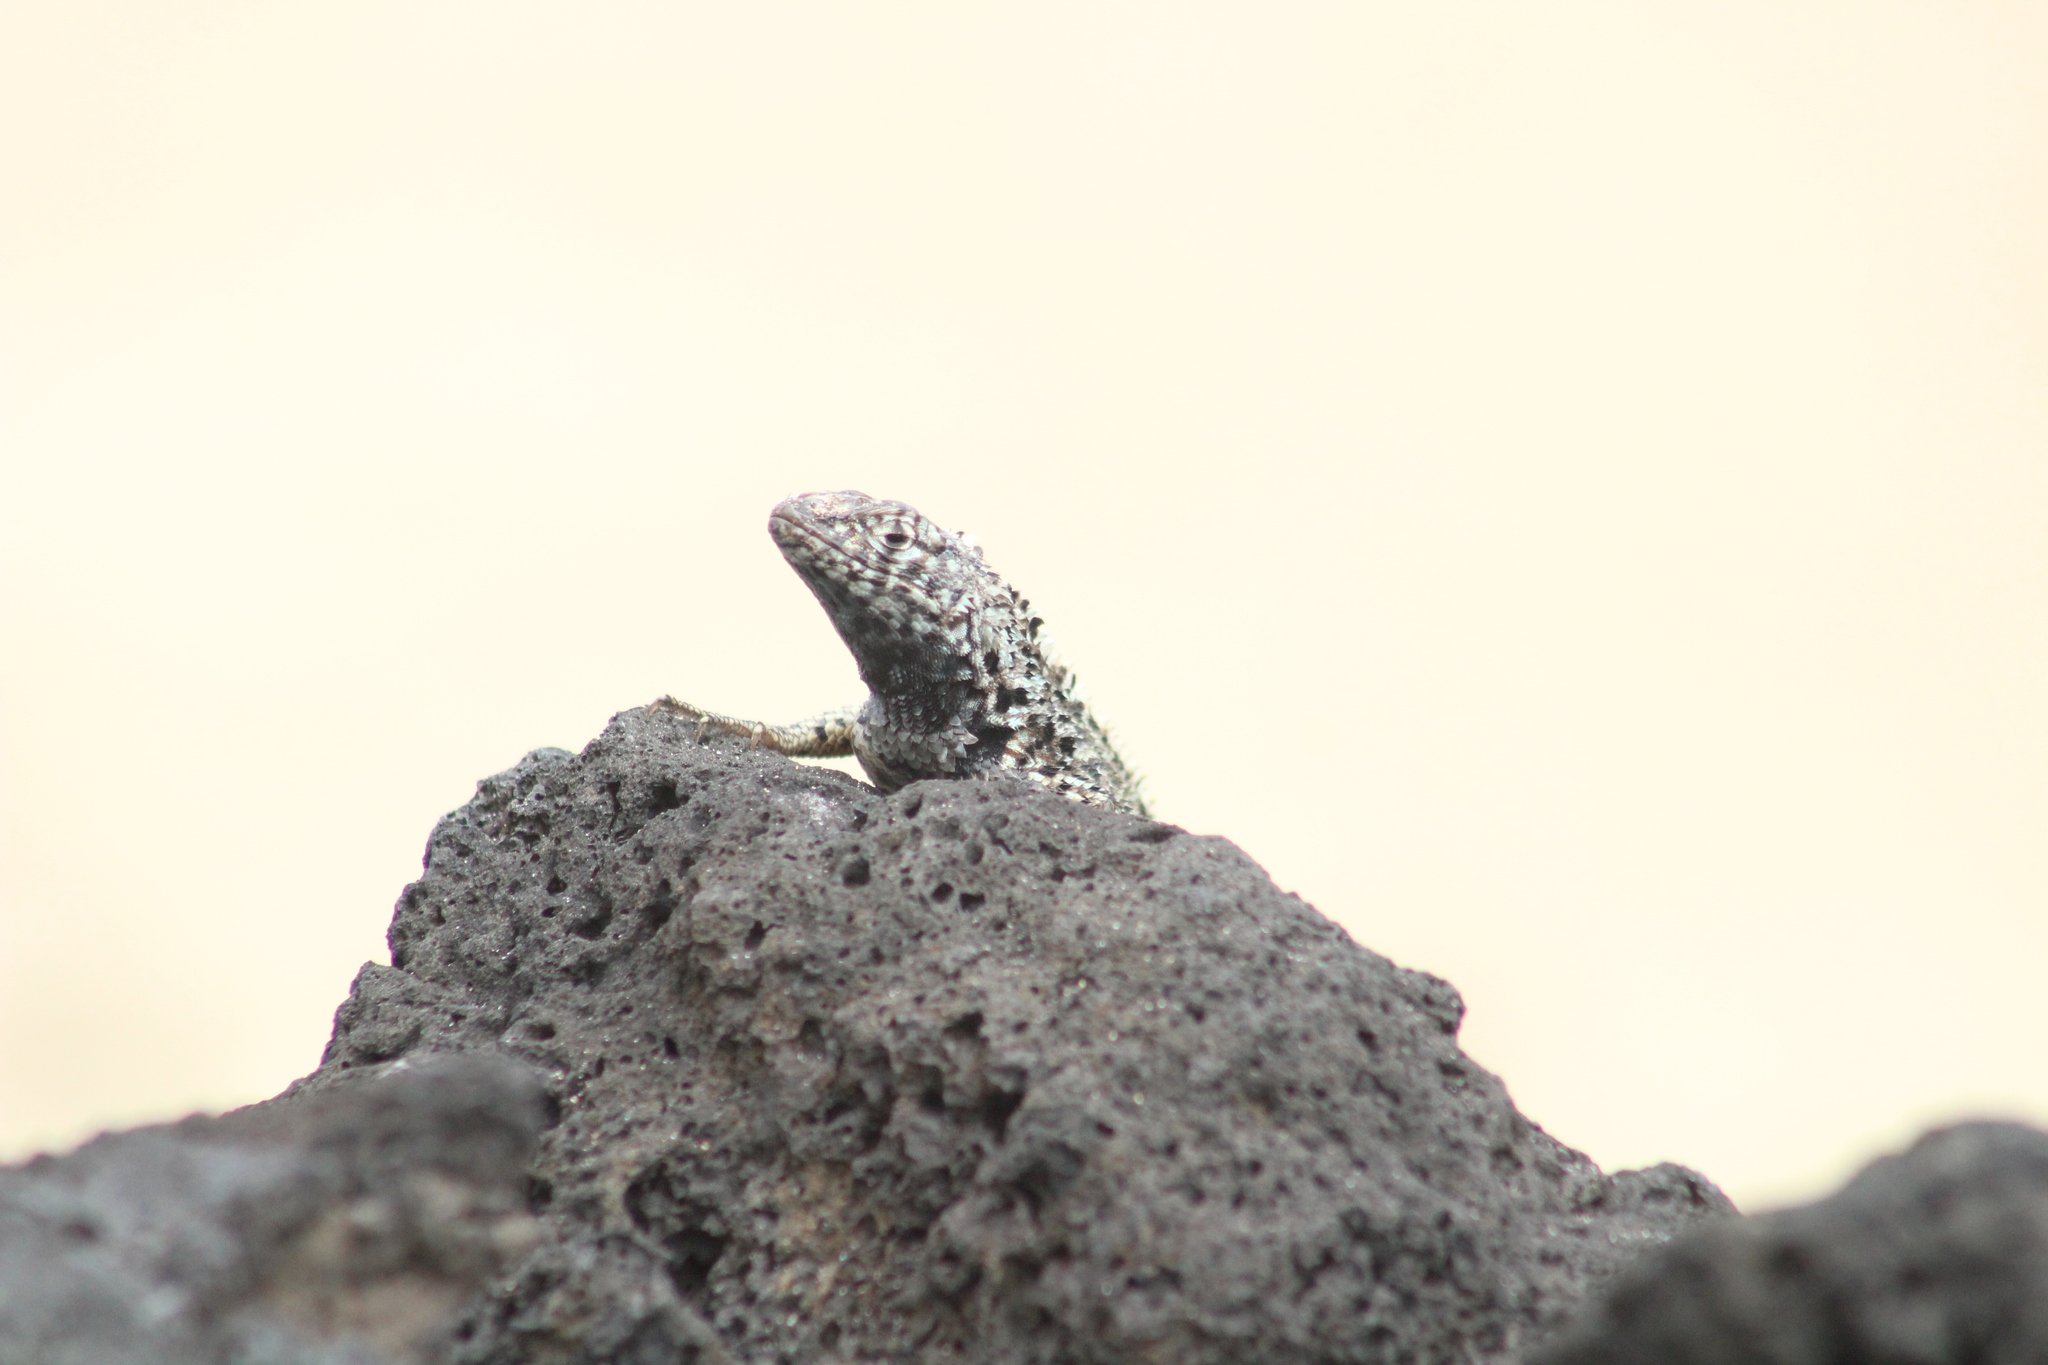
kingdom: Animalia
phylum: Chordata
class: Squamata
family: Tropiduridae
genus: Microlophus
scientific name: Microlophus albemarlensis
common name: Galapagos lava lizard
